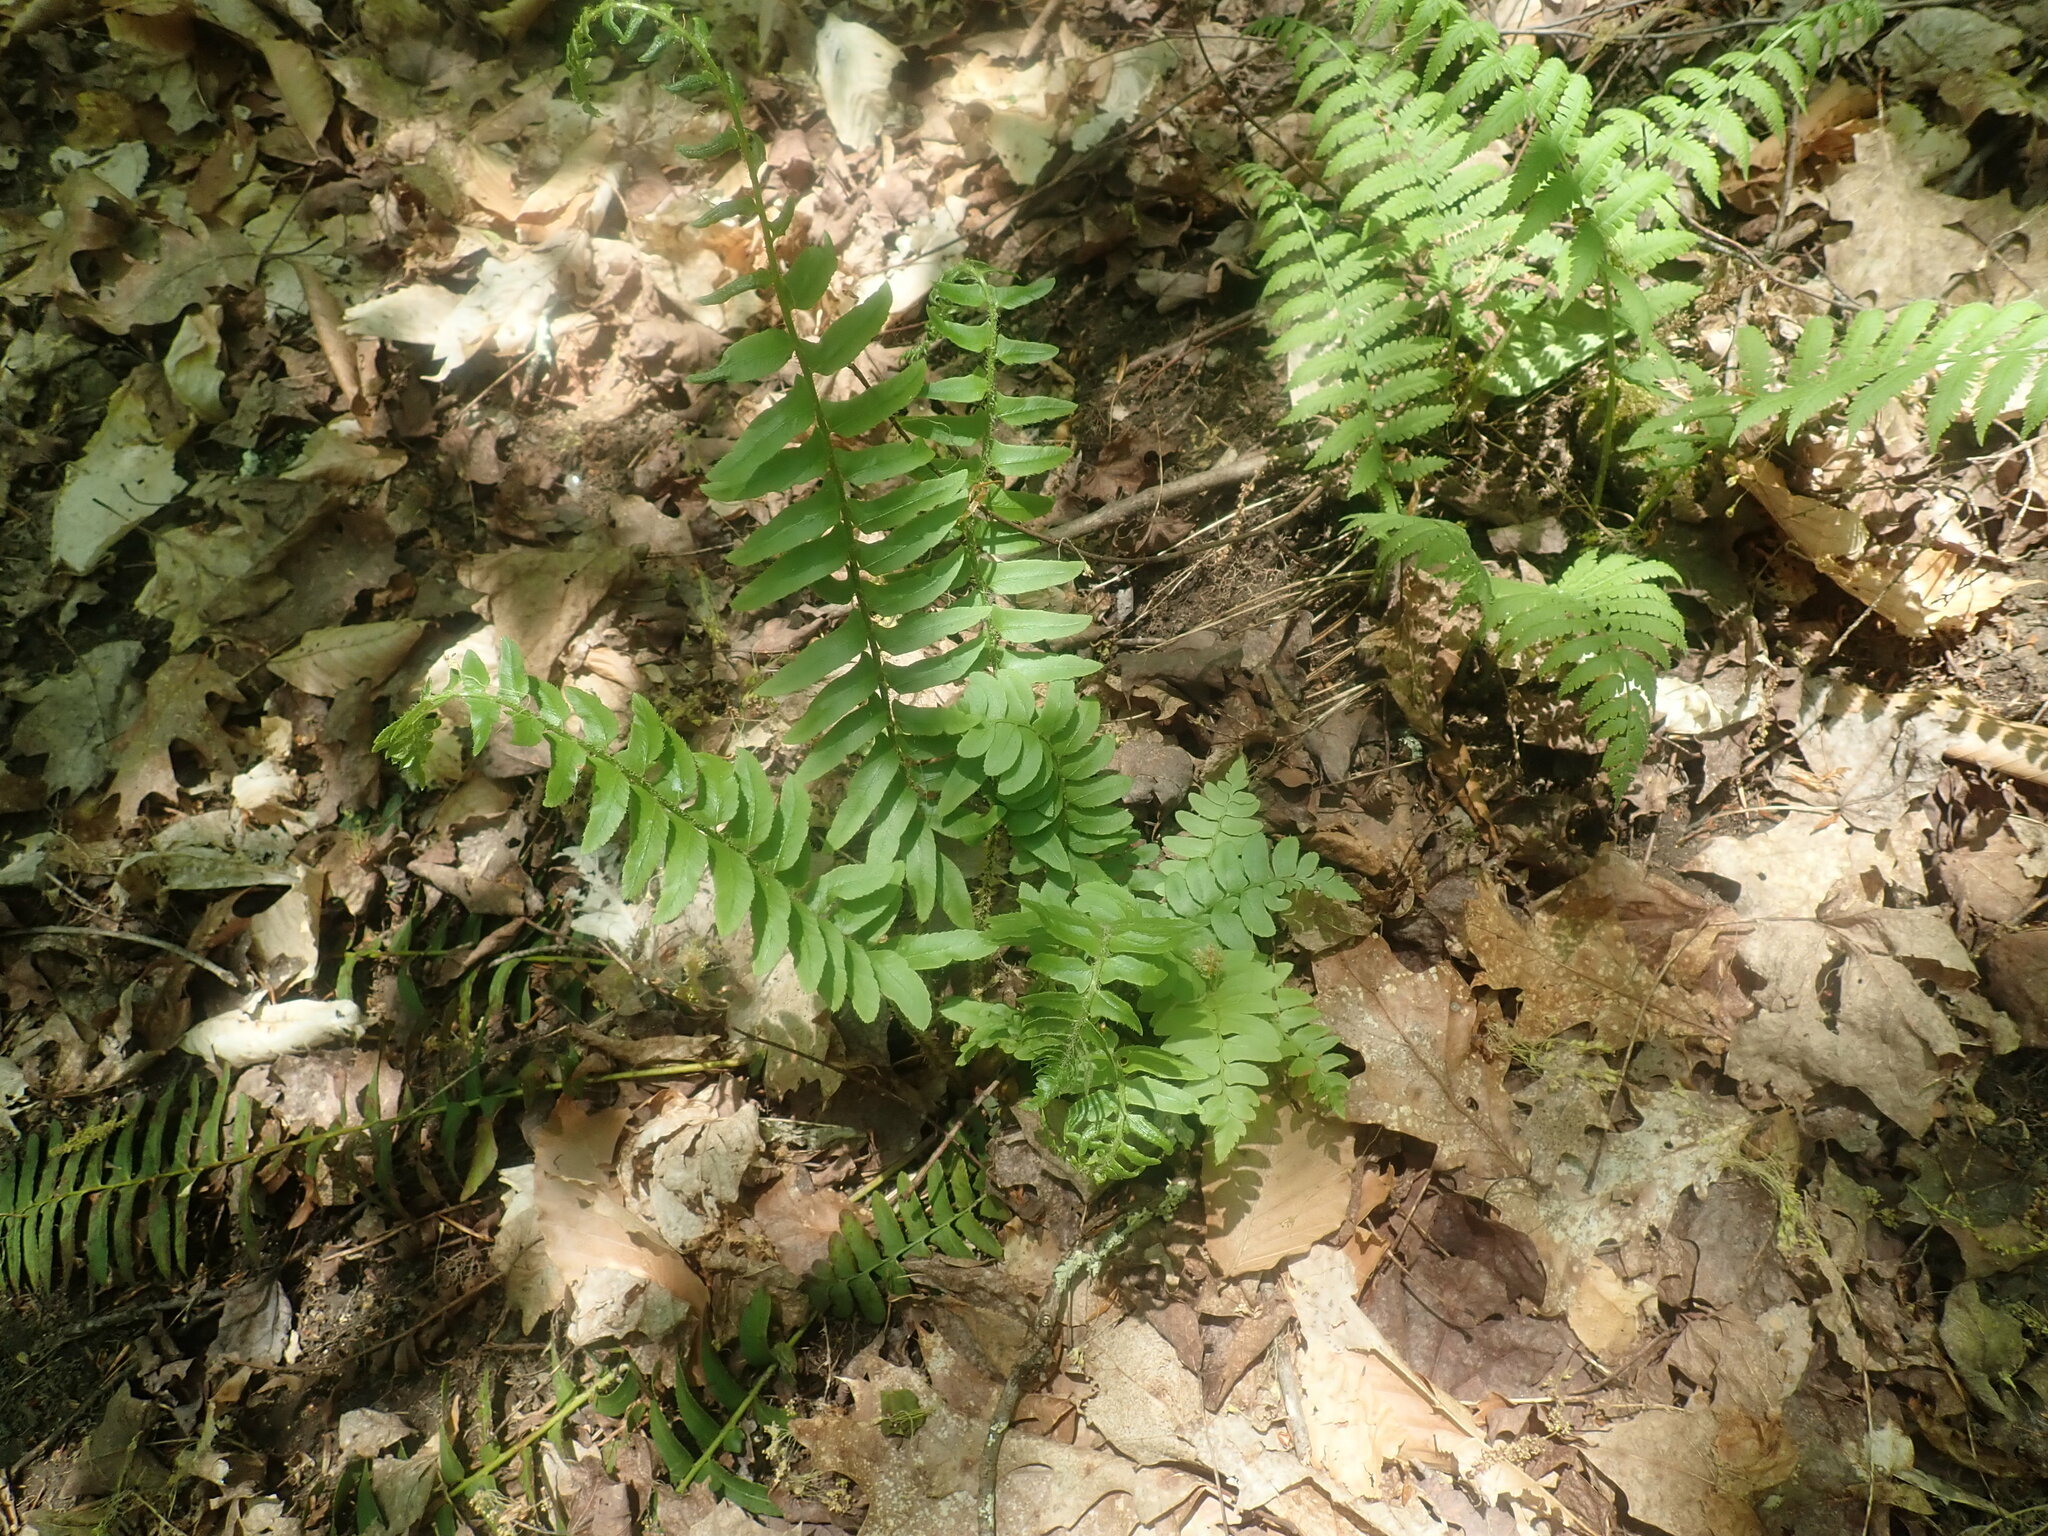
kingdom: Plantae
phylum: Tracheophyta
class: Polypodiopsida
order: Polypodiales
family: Dryopteridaceae
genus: Polystichum
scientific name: Polystichum acrostichoides
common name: Christmas fern
